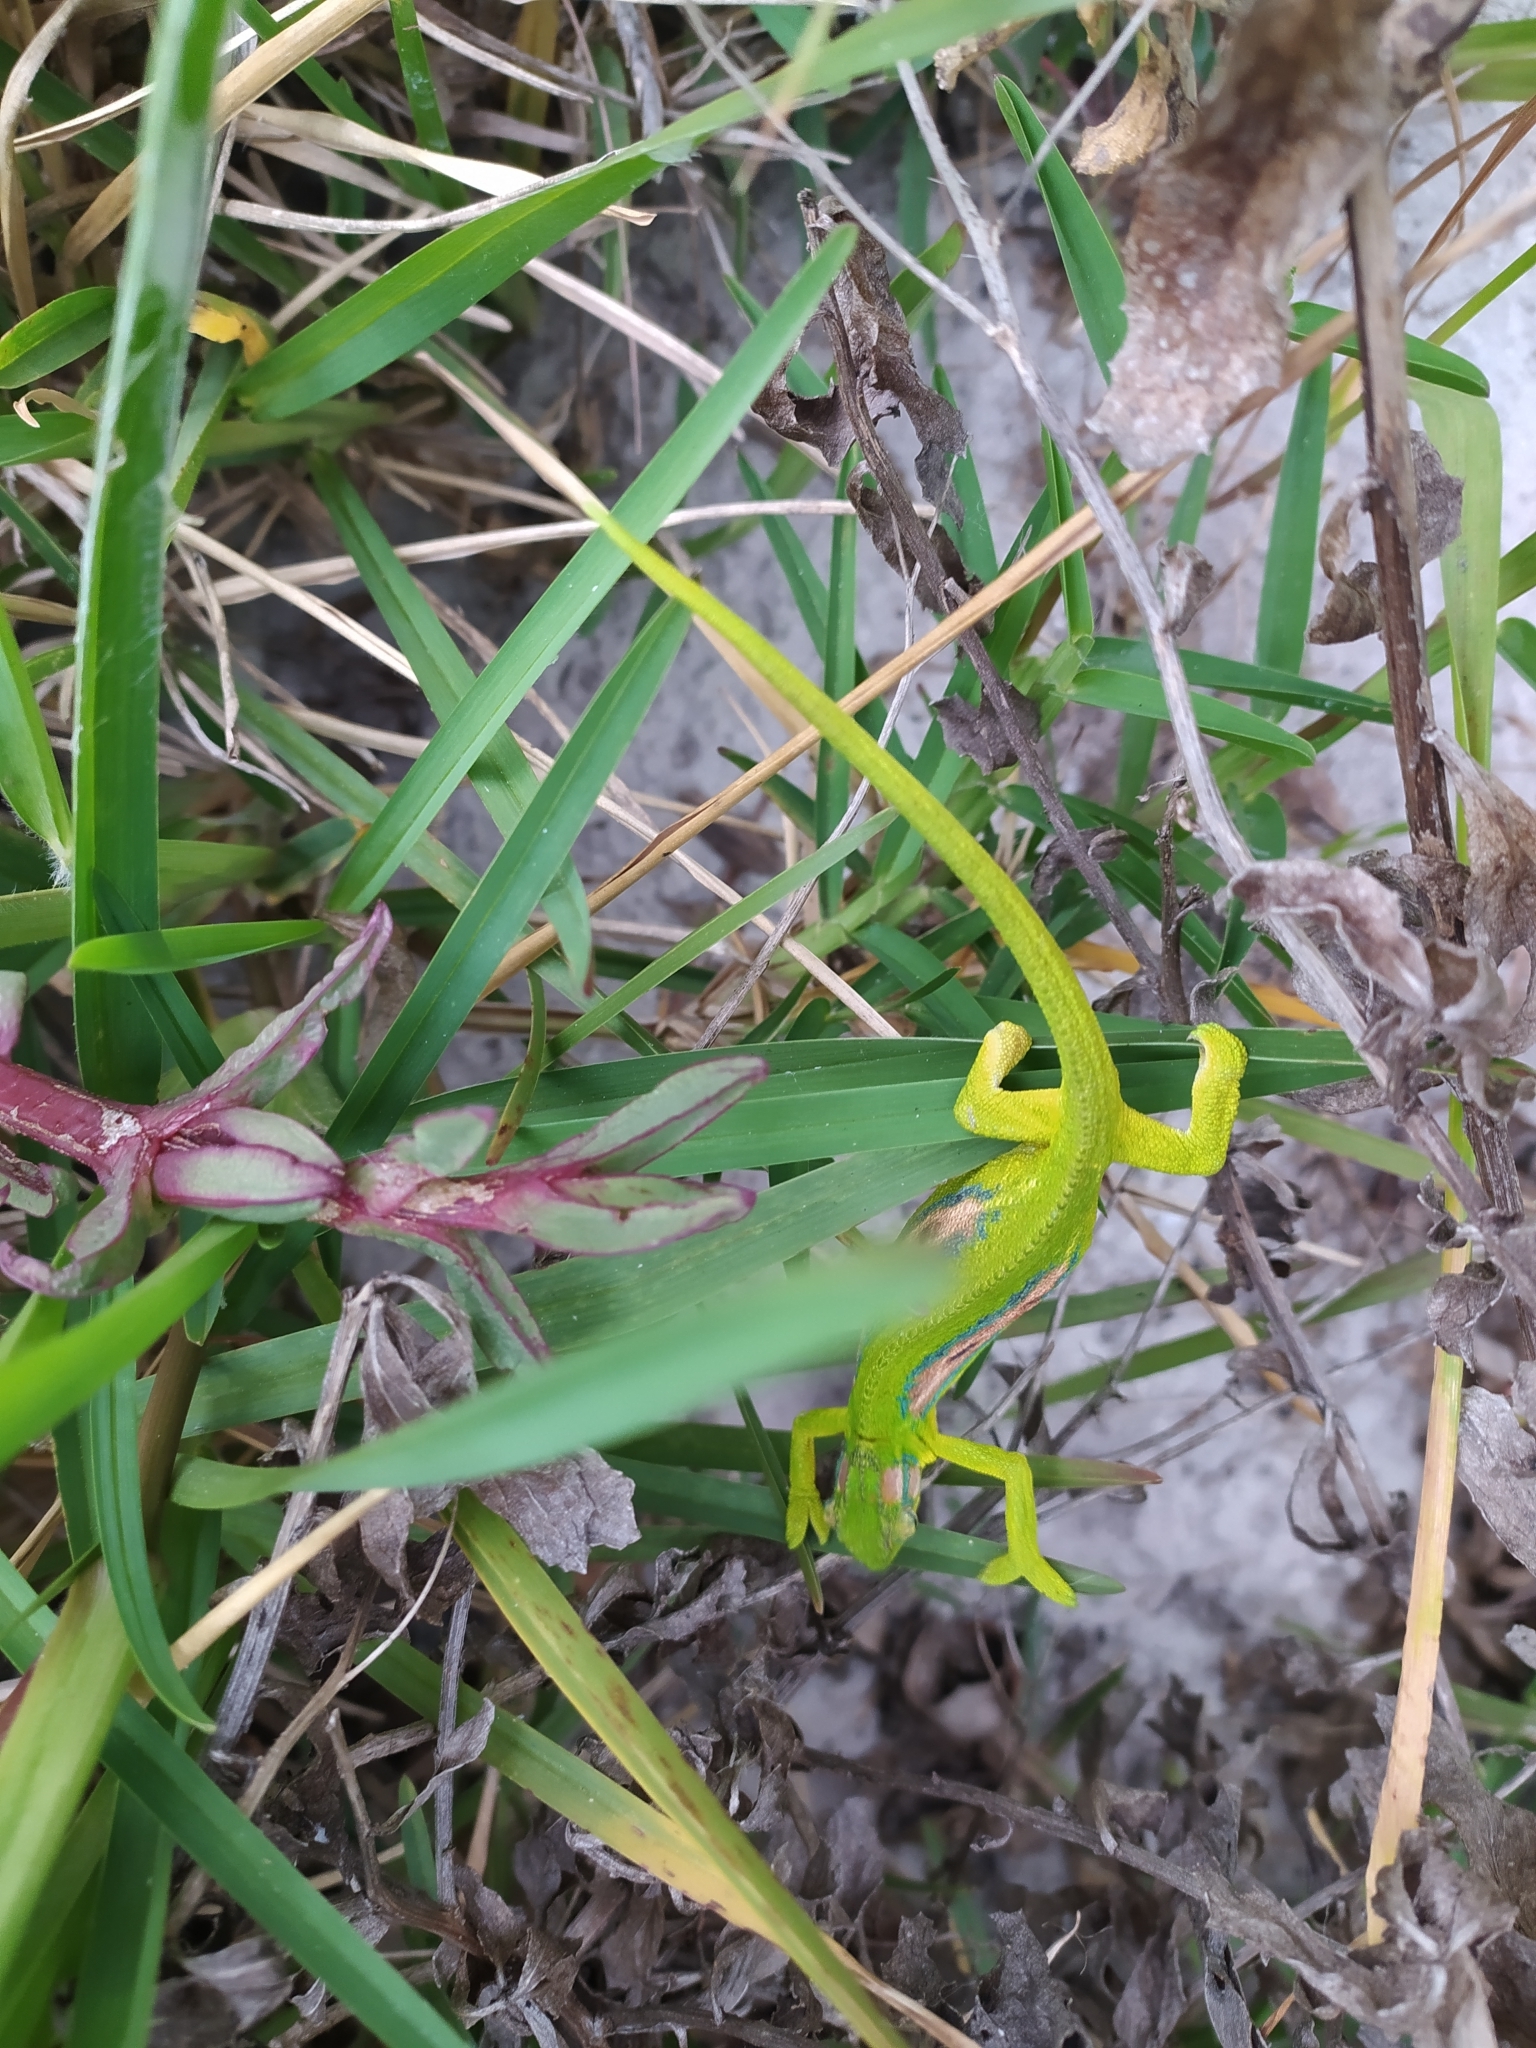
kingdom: Animalia
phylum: Chordata
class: Squamata
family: Chamaeleonidae
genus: Bradypodion
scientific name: Bradypodion pumilum
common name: Cape dwarf chameleon
